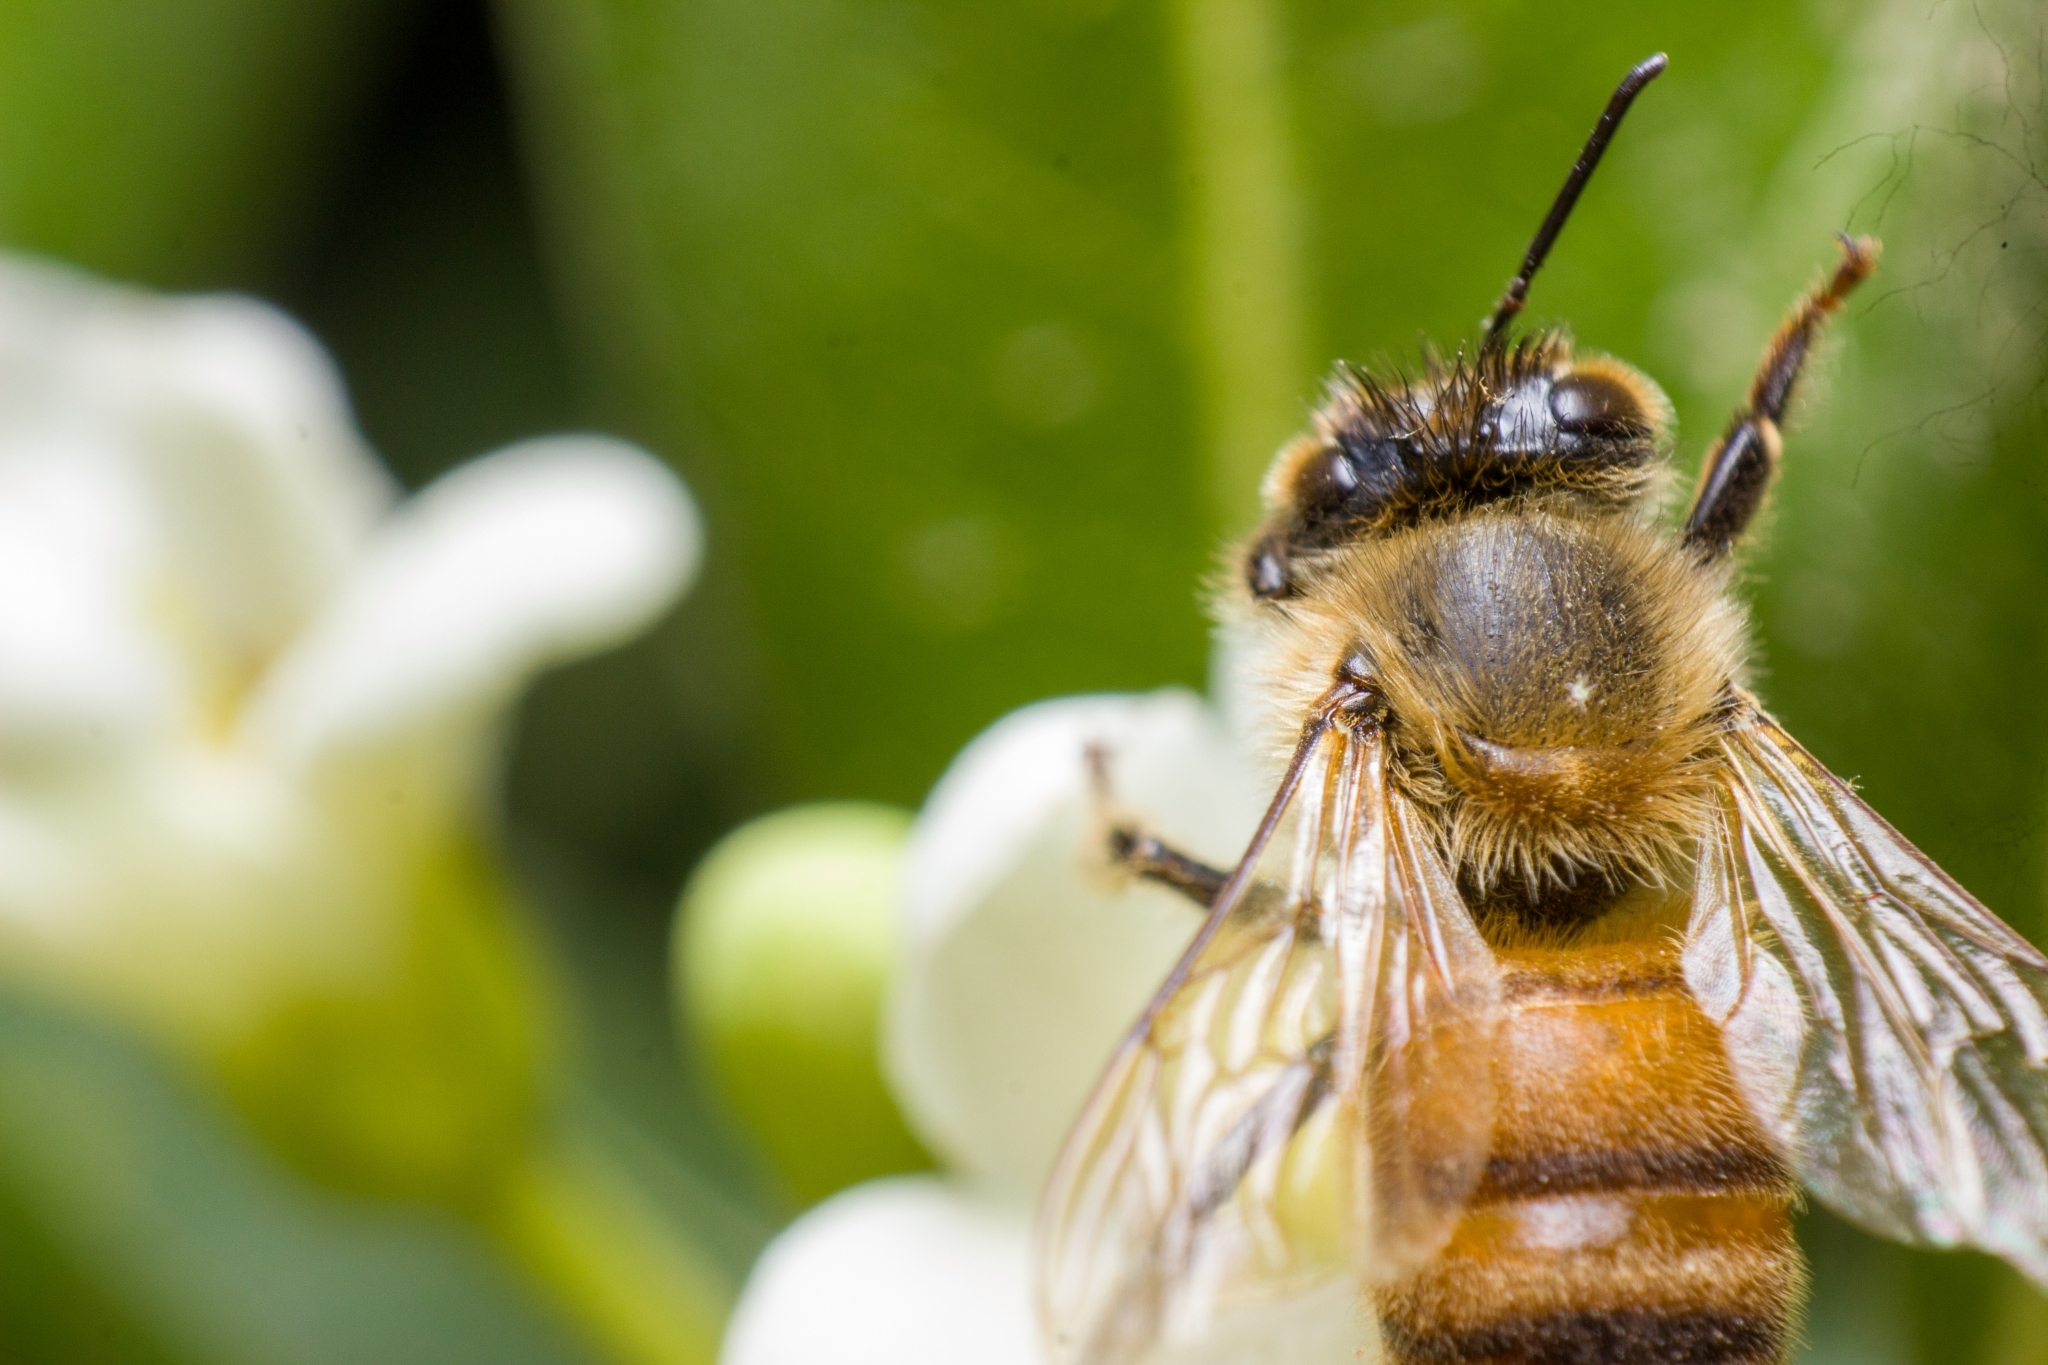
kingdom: Animalia
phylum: Arthropoda
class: Insecta
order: Hymenoptera
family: Apidae
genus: Apis
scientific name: Apis mellifera
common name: Honey bee
